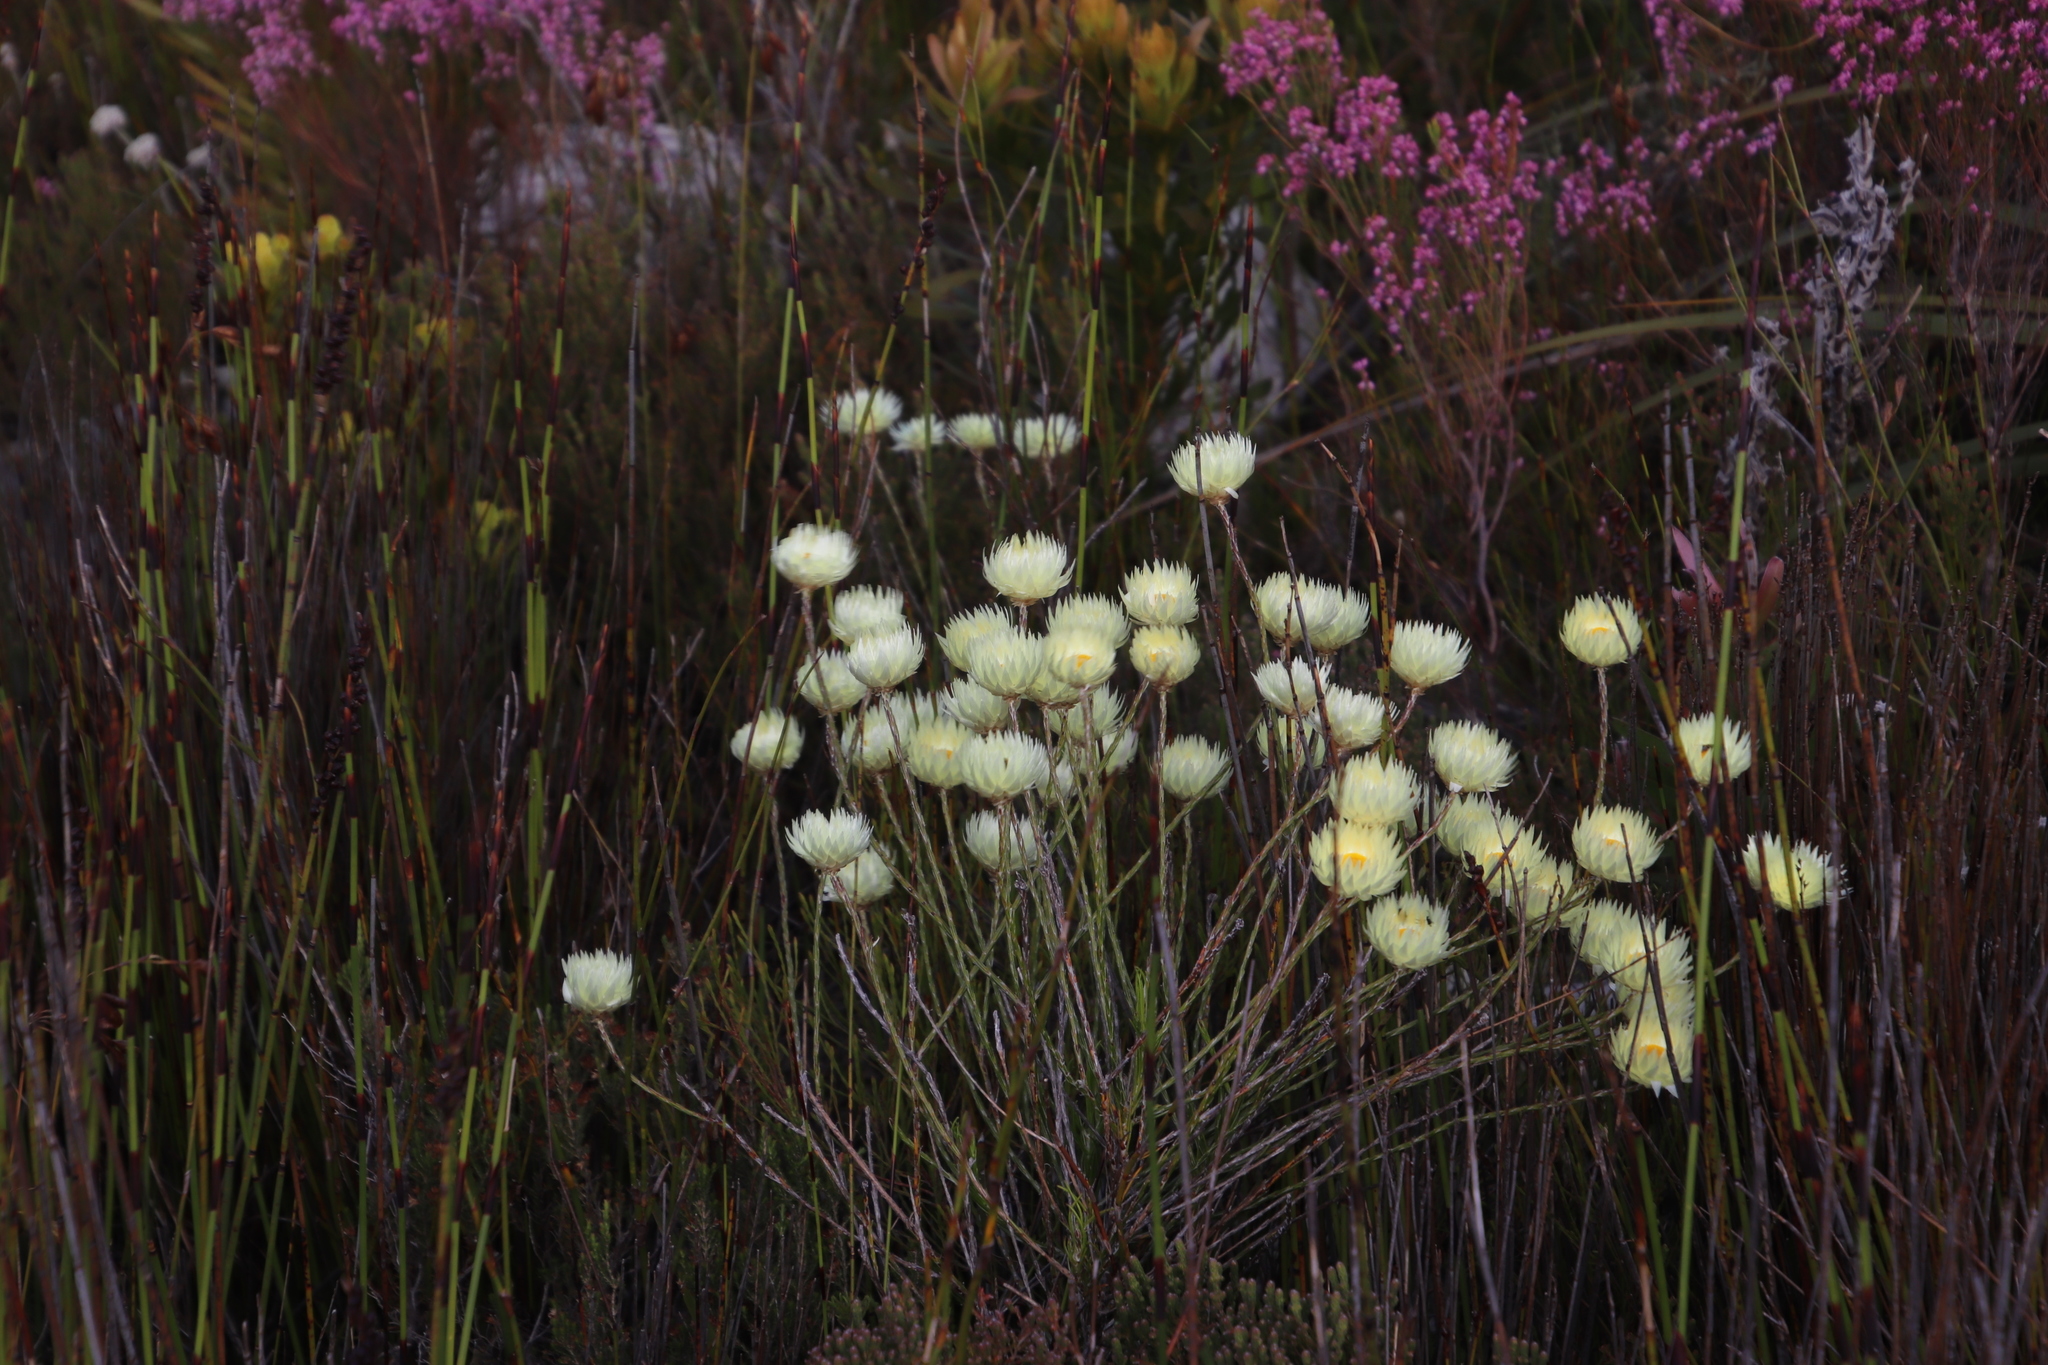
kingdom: Plantae
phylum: Tracheophyta
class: Magnoliopsida
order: Asterales
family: Asteraceae
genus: Edmondia
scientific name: Edmondia sesamoides
